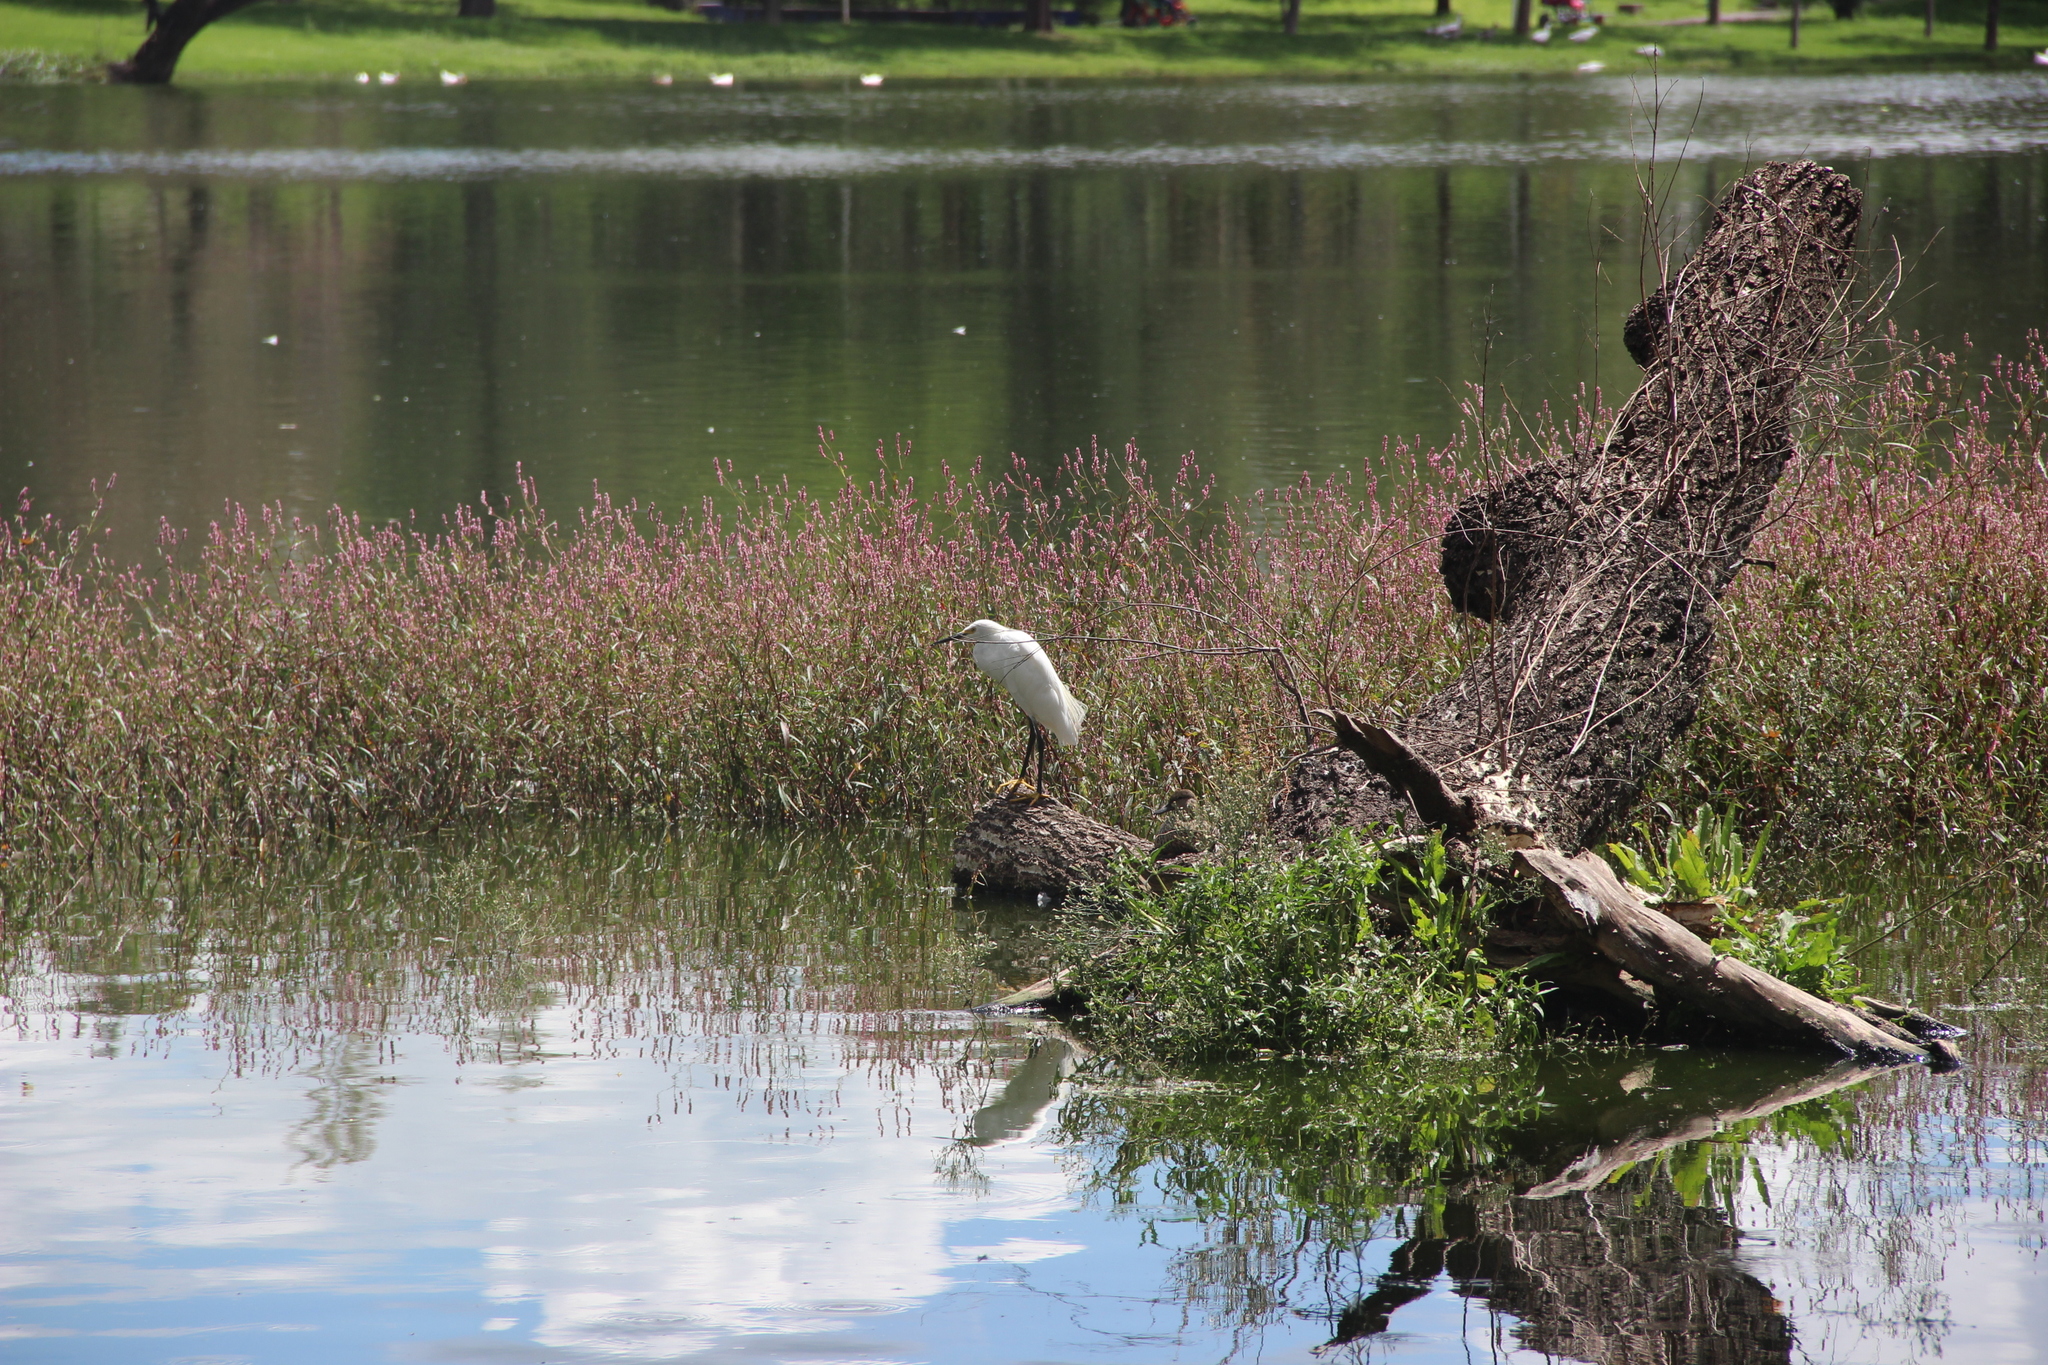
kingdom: Animalia
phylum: Chordata
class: Aves
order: Pelecaniformes
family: Ardeidae
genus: Egretta
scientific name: Egretta thula
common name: Snowy egret
